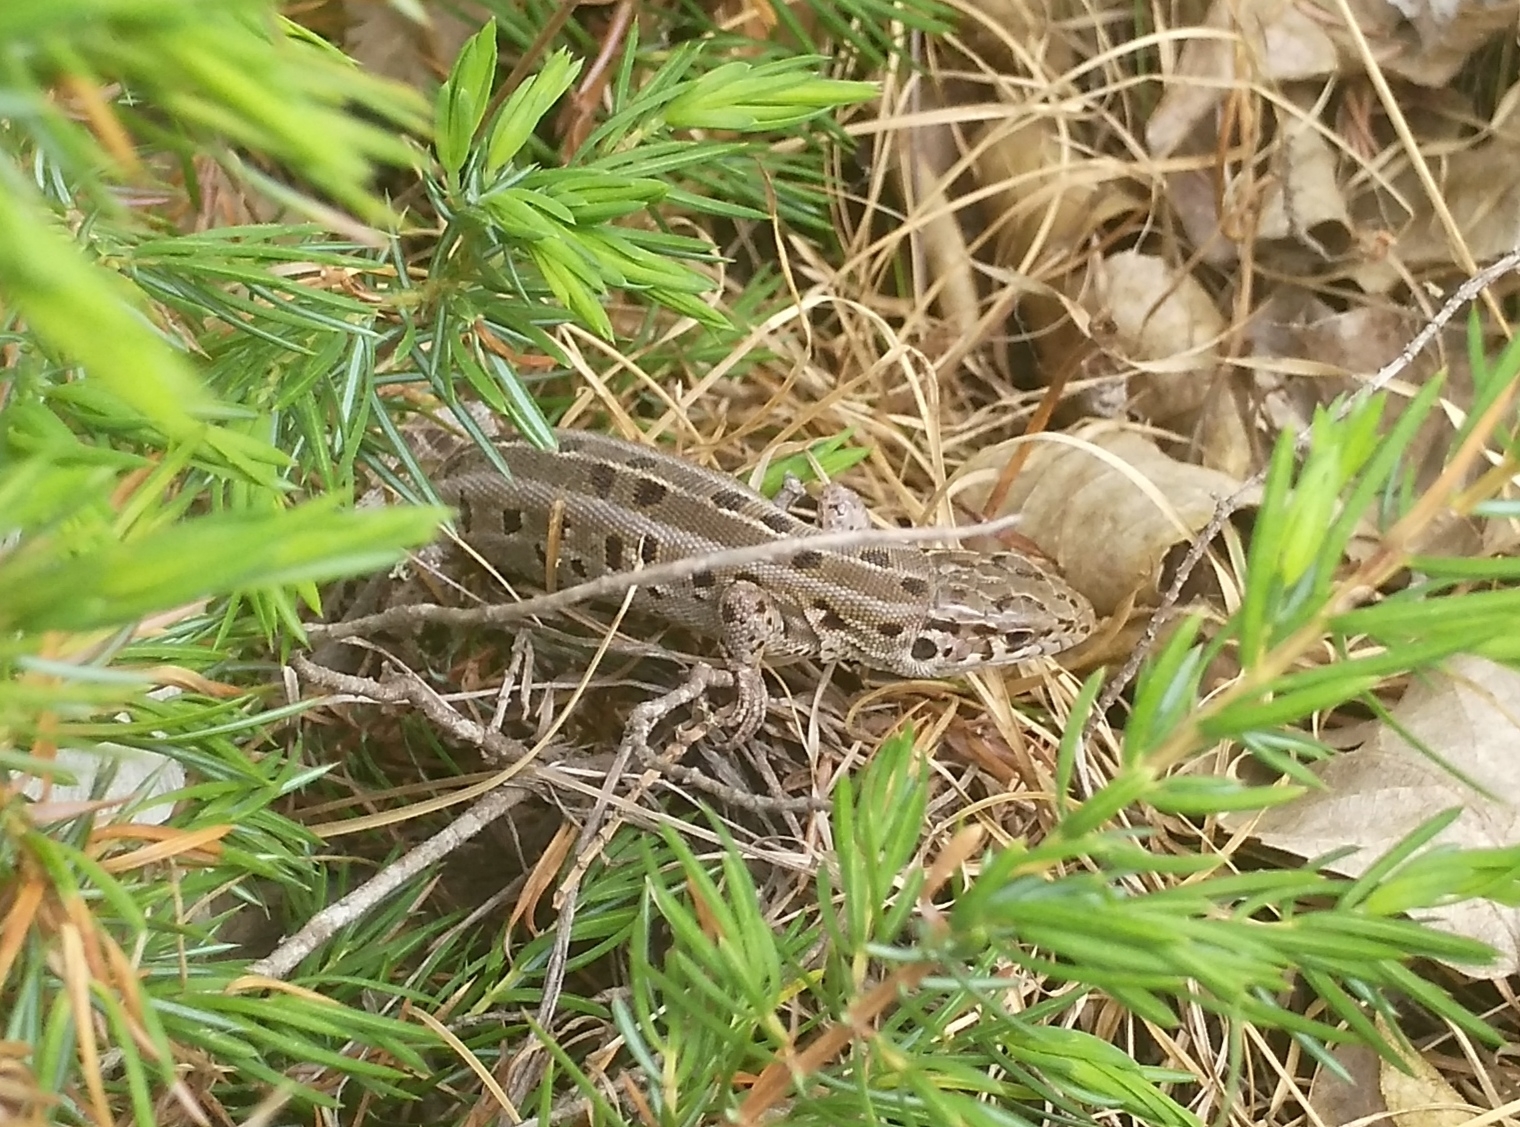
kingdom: Animalia
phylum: Chordata
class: Squamata
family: Lacertidae
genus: Lacerta
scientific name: Lacerta agilis
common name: Sand lizard
